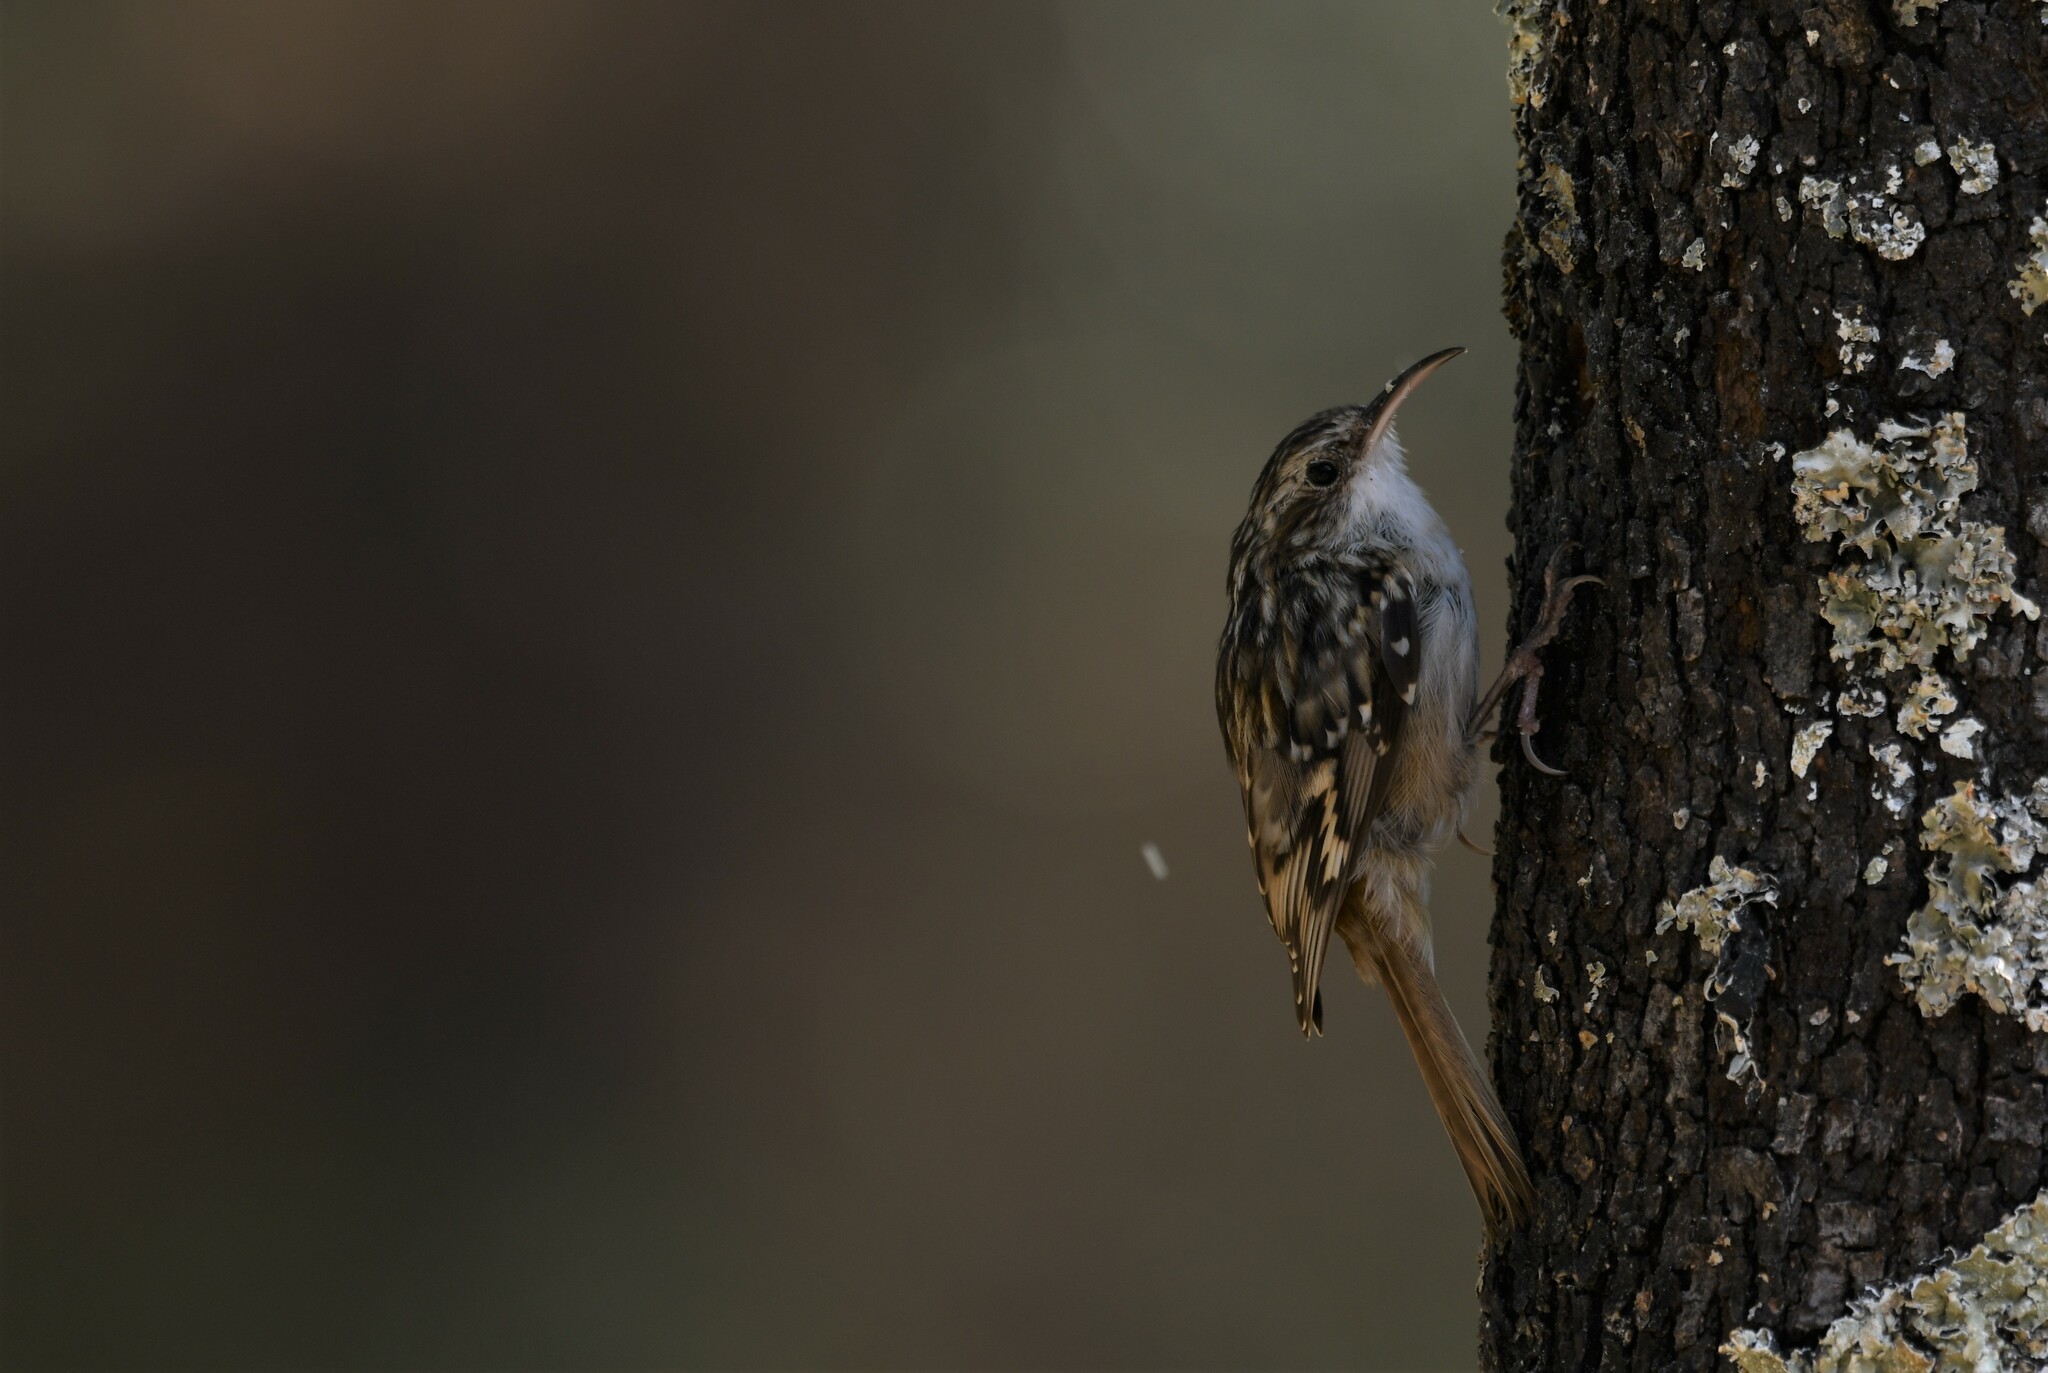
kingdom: Animalia
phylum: Chordata
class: Aves
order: Passeriformes
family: Certhiidae
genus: Certhia
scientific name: Certhia brachydactyla
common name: Short-toed treecreeper
